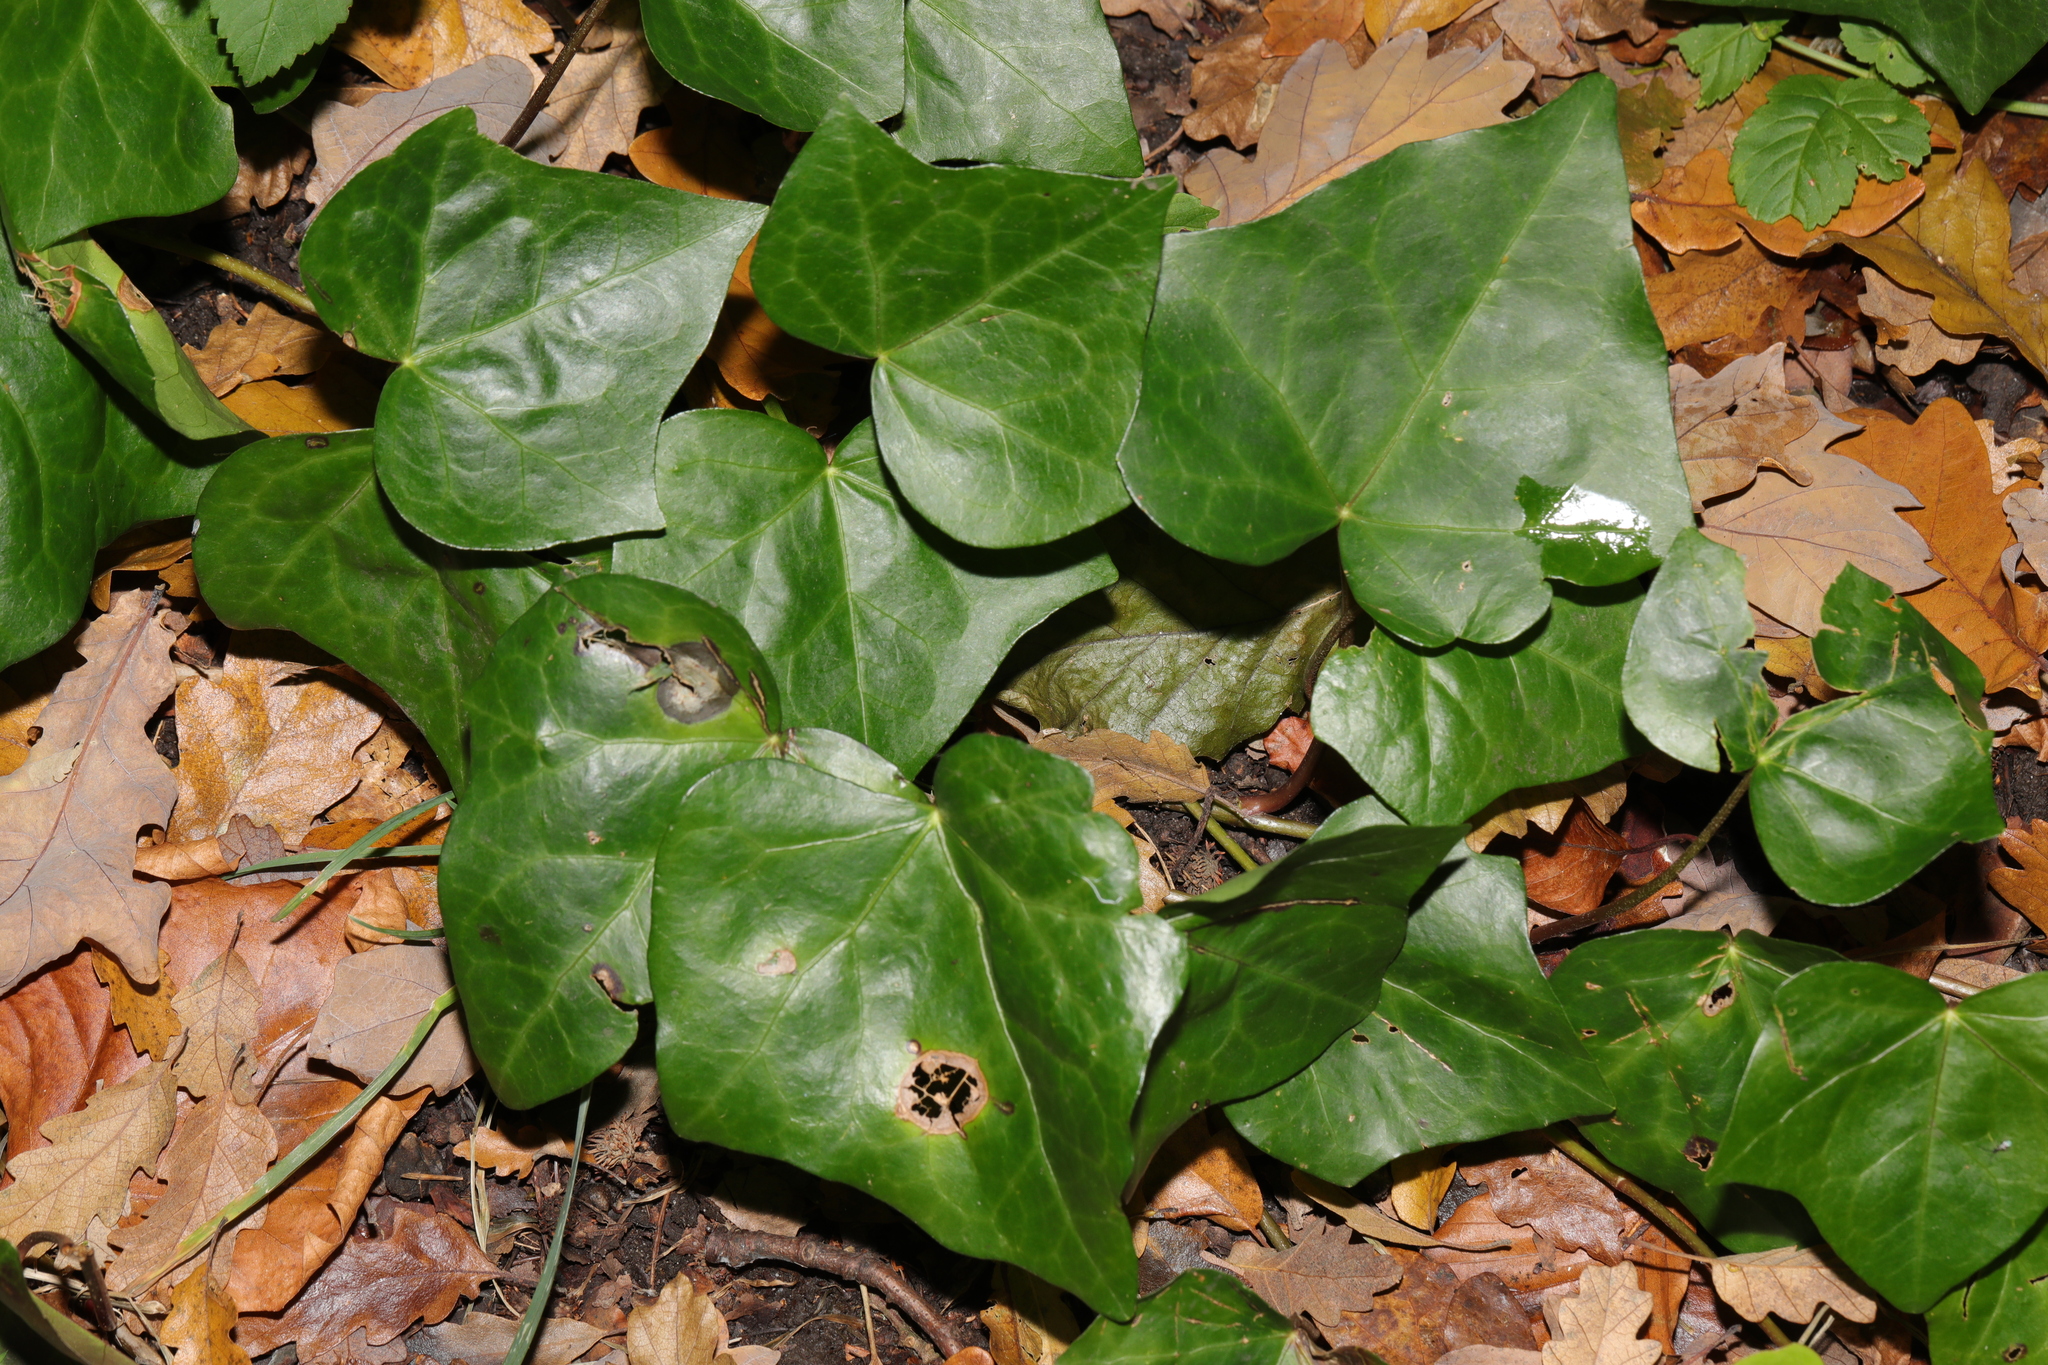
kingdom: Plantae
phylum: Tracheophyta
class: Magnoliopsida
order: Apiales
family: Araliaceae
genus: Hedera
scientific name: Hedera helix
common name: Ivy
